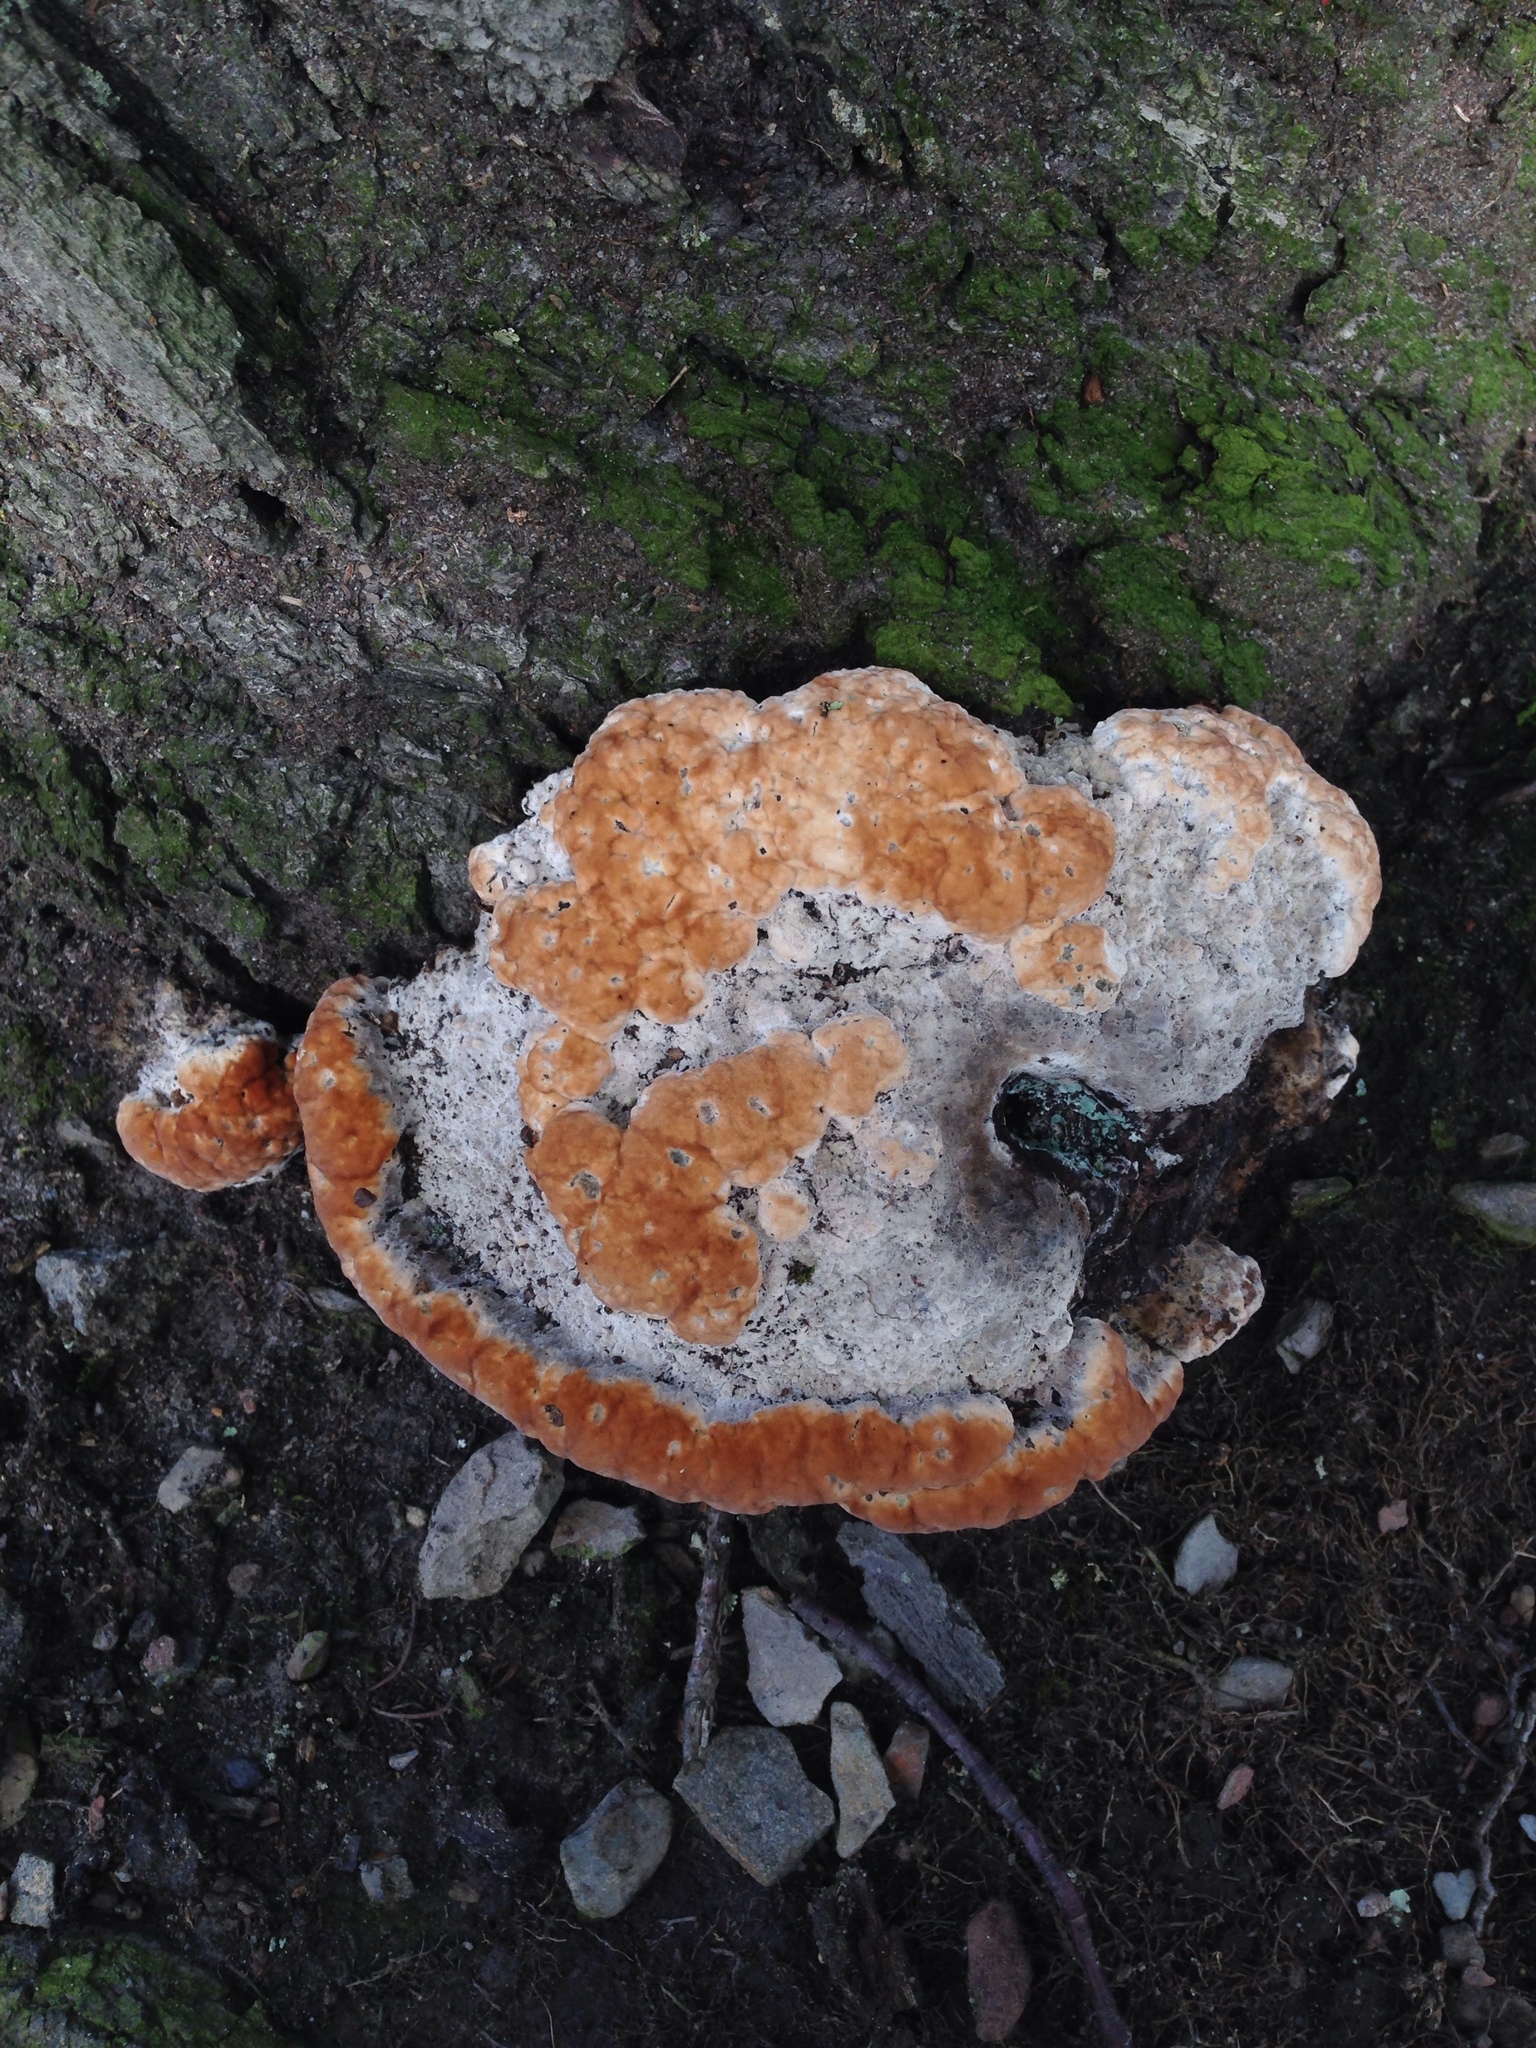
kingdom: Fungi
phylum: Basidiomycota
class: Agaricomycetes
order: Polyporales
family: Fomitopsidaceae
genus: Niveoporofomes
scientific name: Niveoporofomes spraguei
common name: Green cheese polypore
